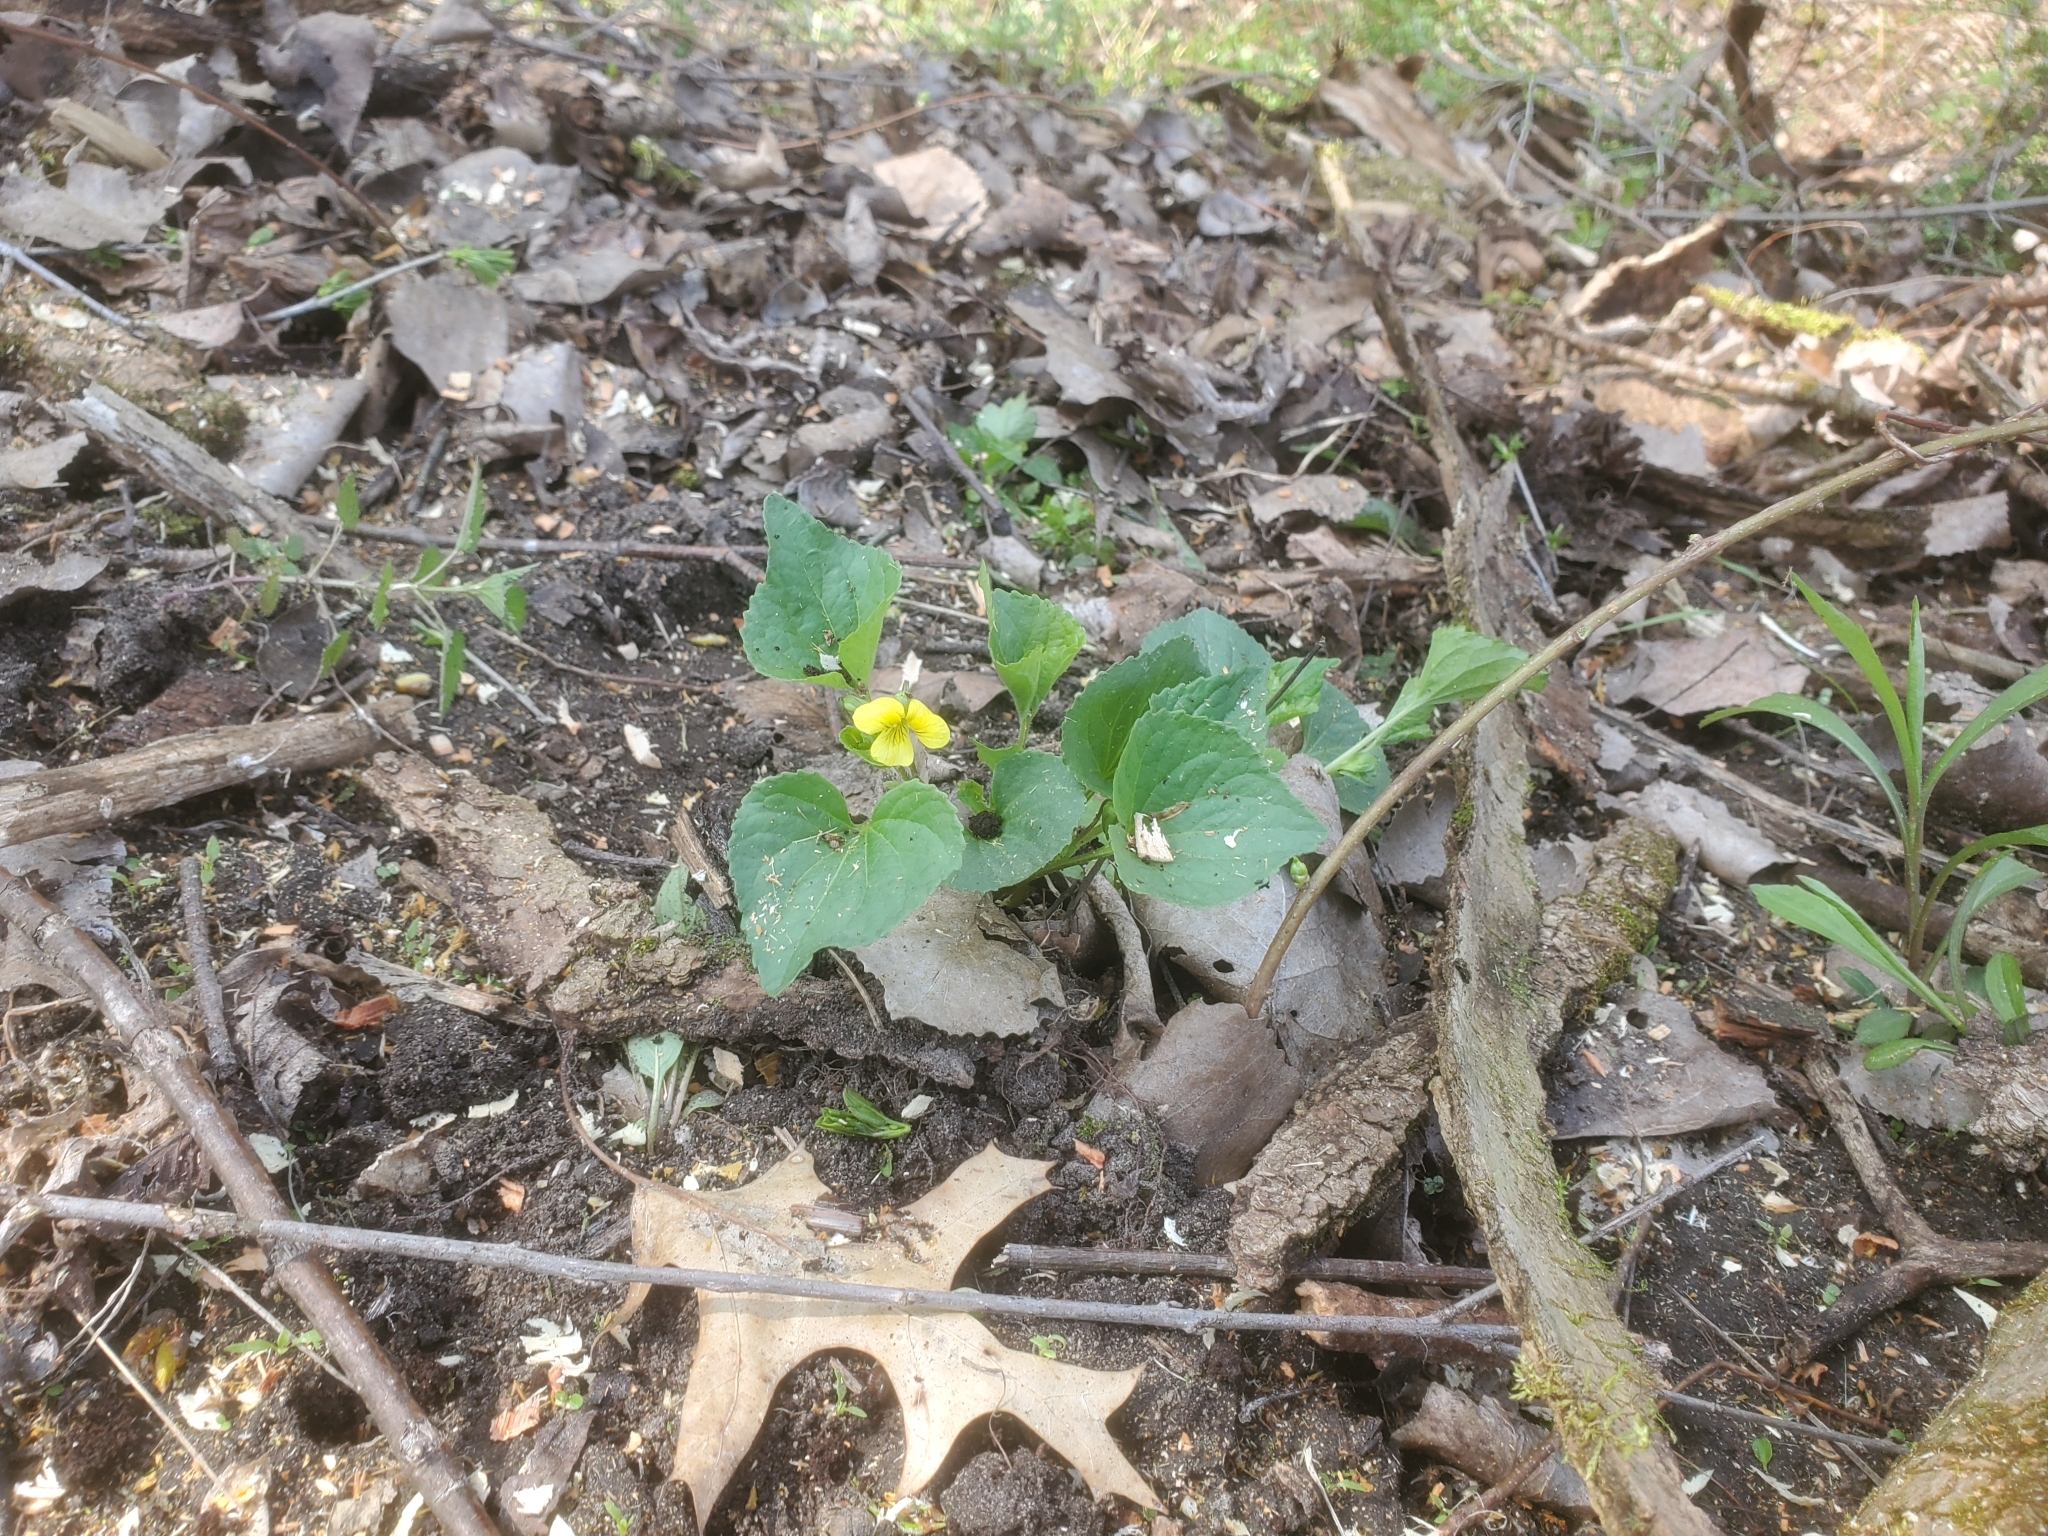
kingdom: Plantae
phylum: Tracheophyta
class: Magnoliopsida
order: Malpighiales
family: Violaceae
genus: Viola
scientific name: Viola eriocarpa
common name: Smooth yellow violet
